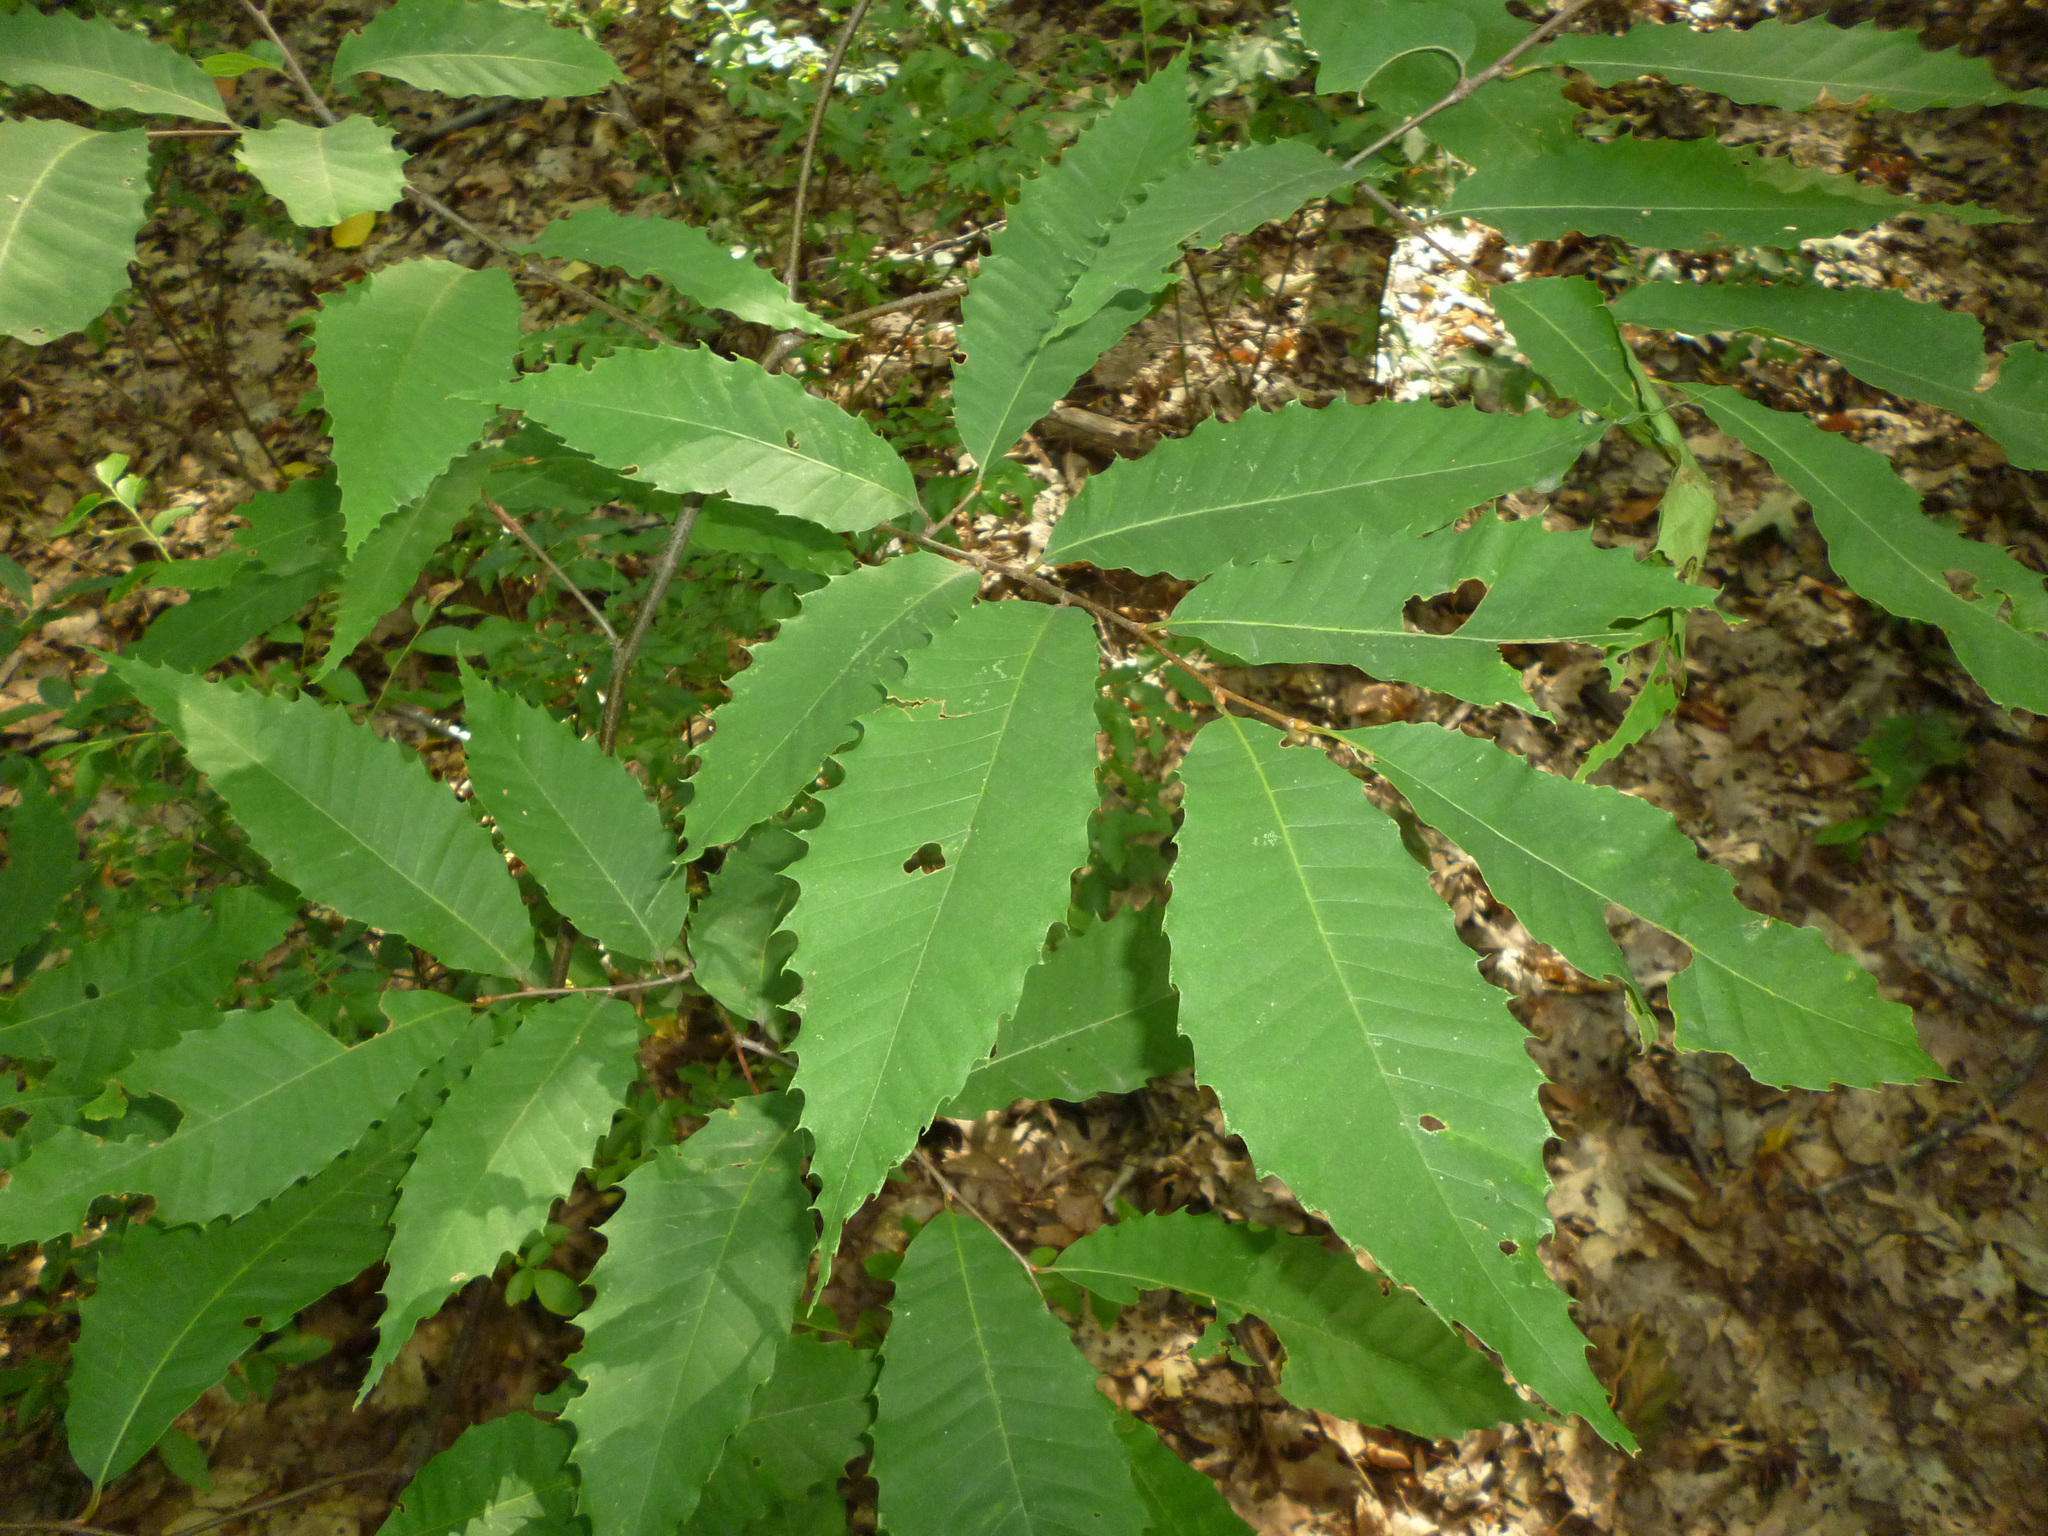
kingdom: Plantae
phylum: Tracheophyta
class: Magnoliopsida
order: Fagales
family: Fagaceae
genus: Castanea
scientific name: Castanea dentata
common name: American chestnut
